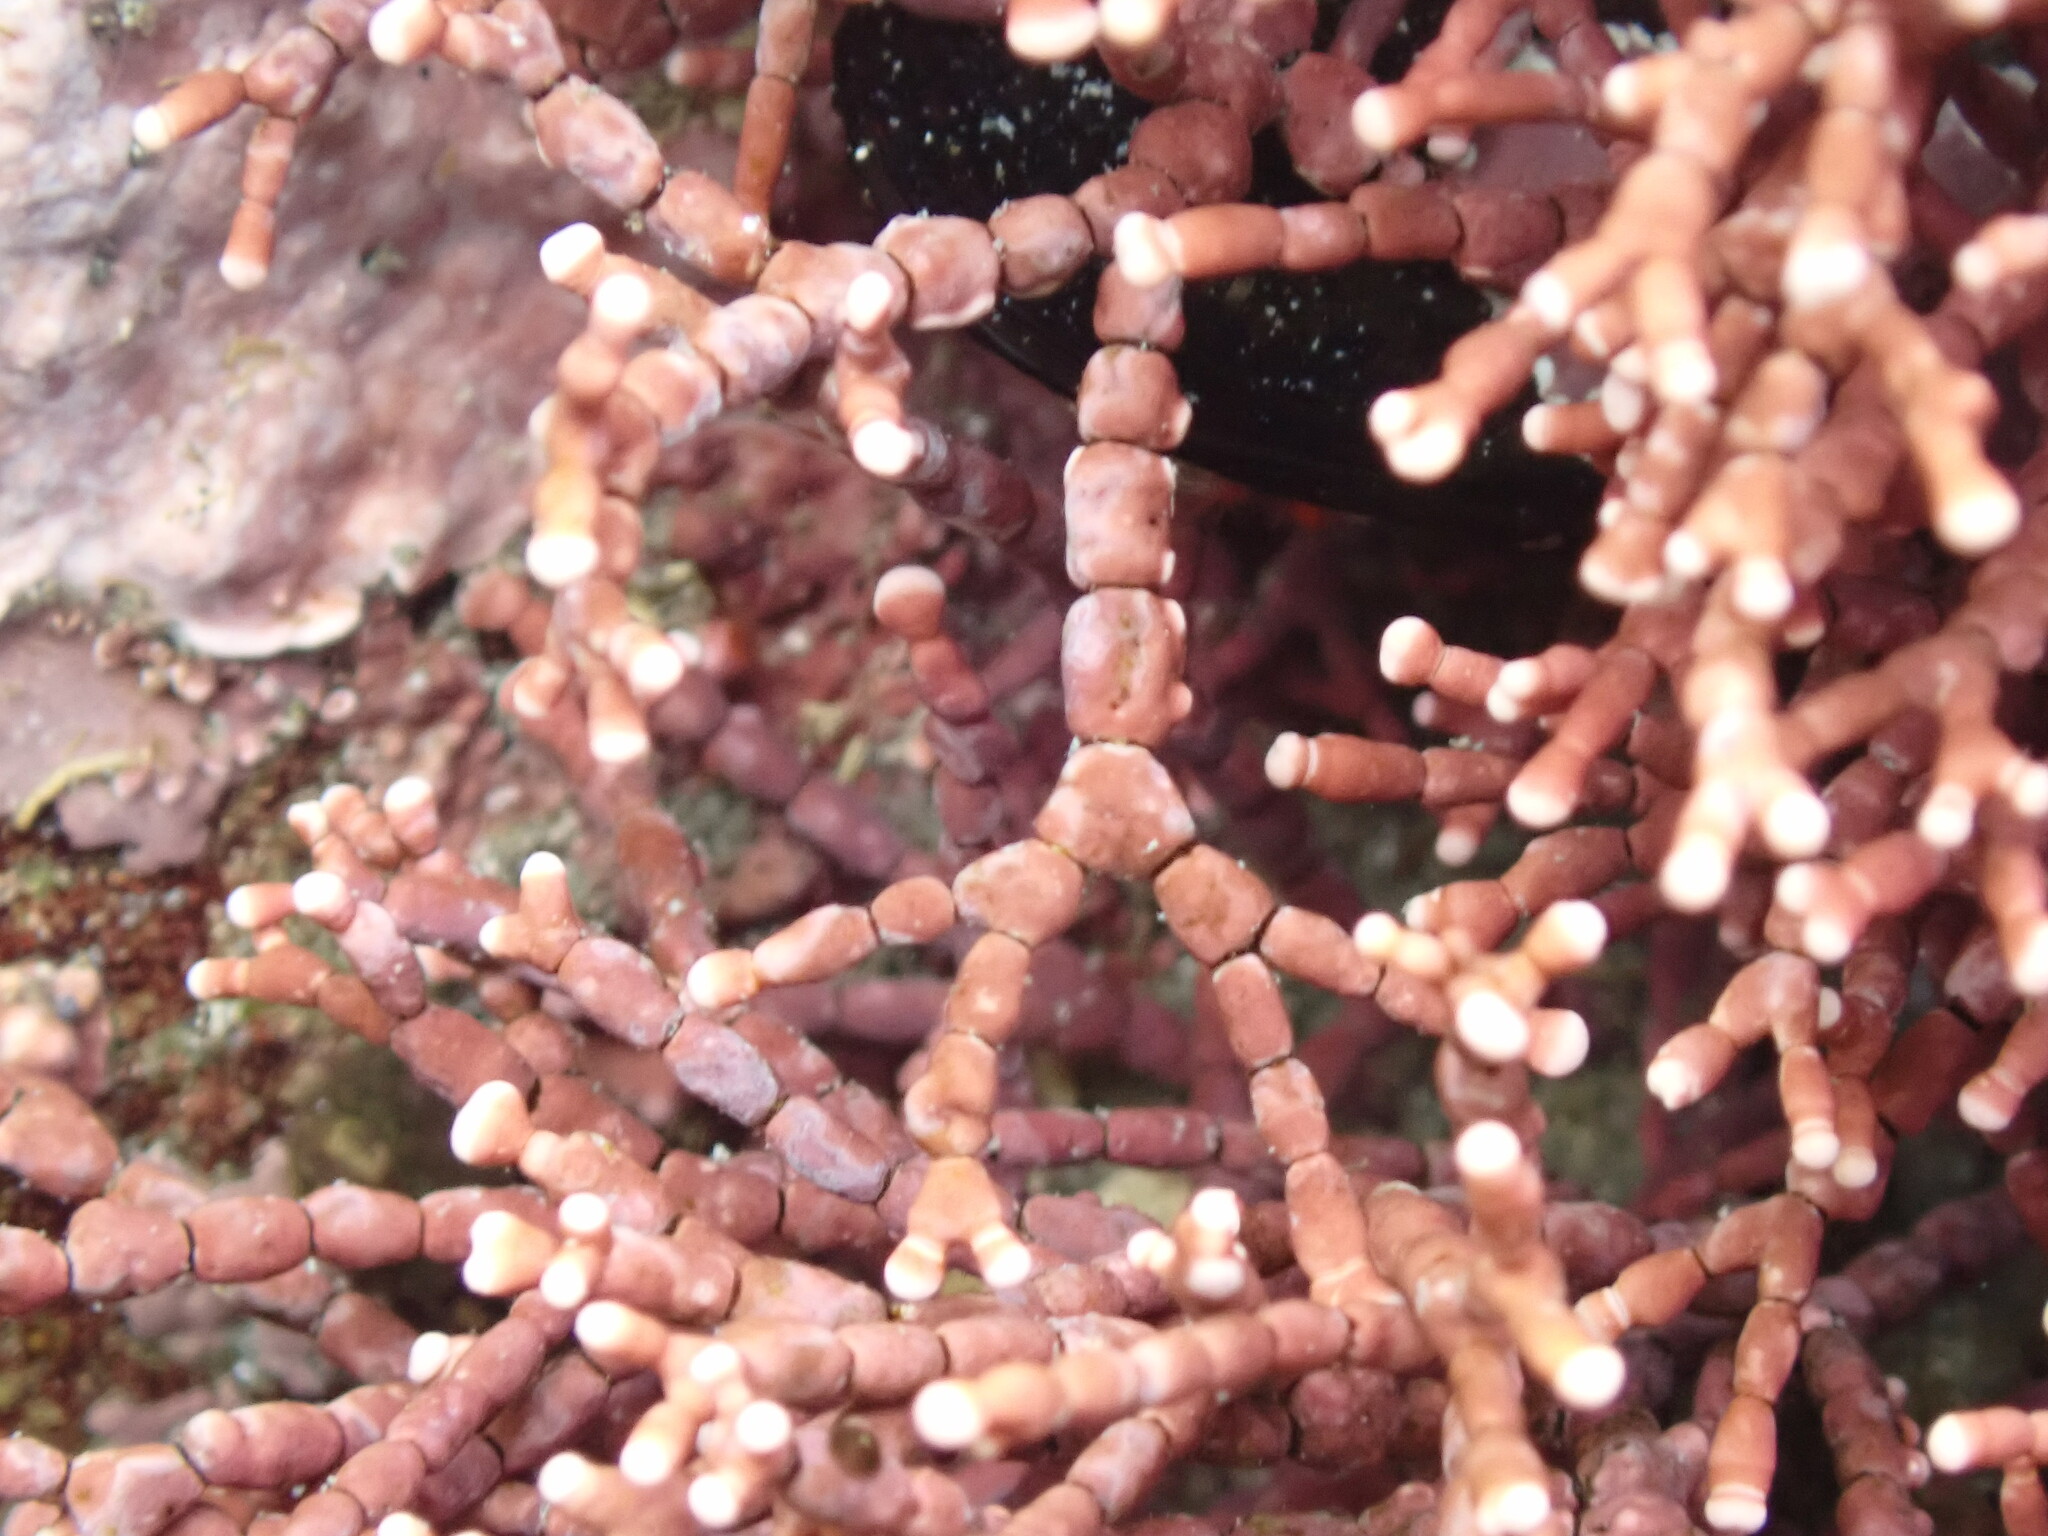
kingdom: Plantae
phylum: Rhodophyta
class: Florideophyceae
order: Corallinales
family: Corallinaceae
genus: Calliarthron
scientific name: Calliarthron tuberculosum
